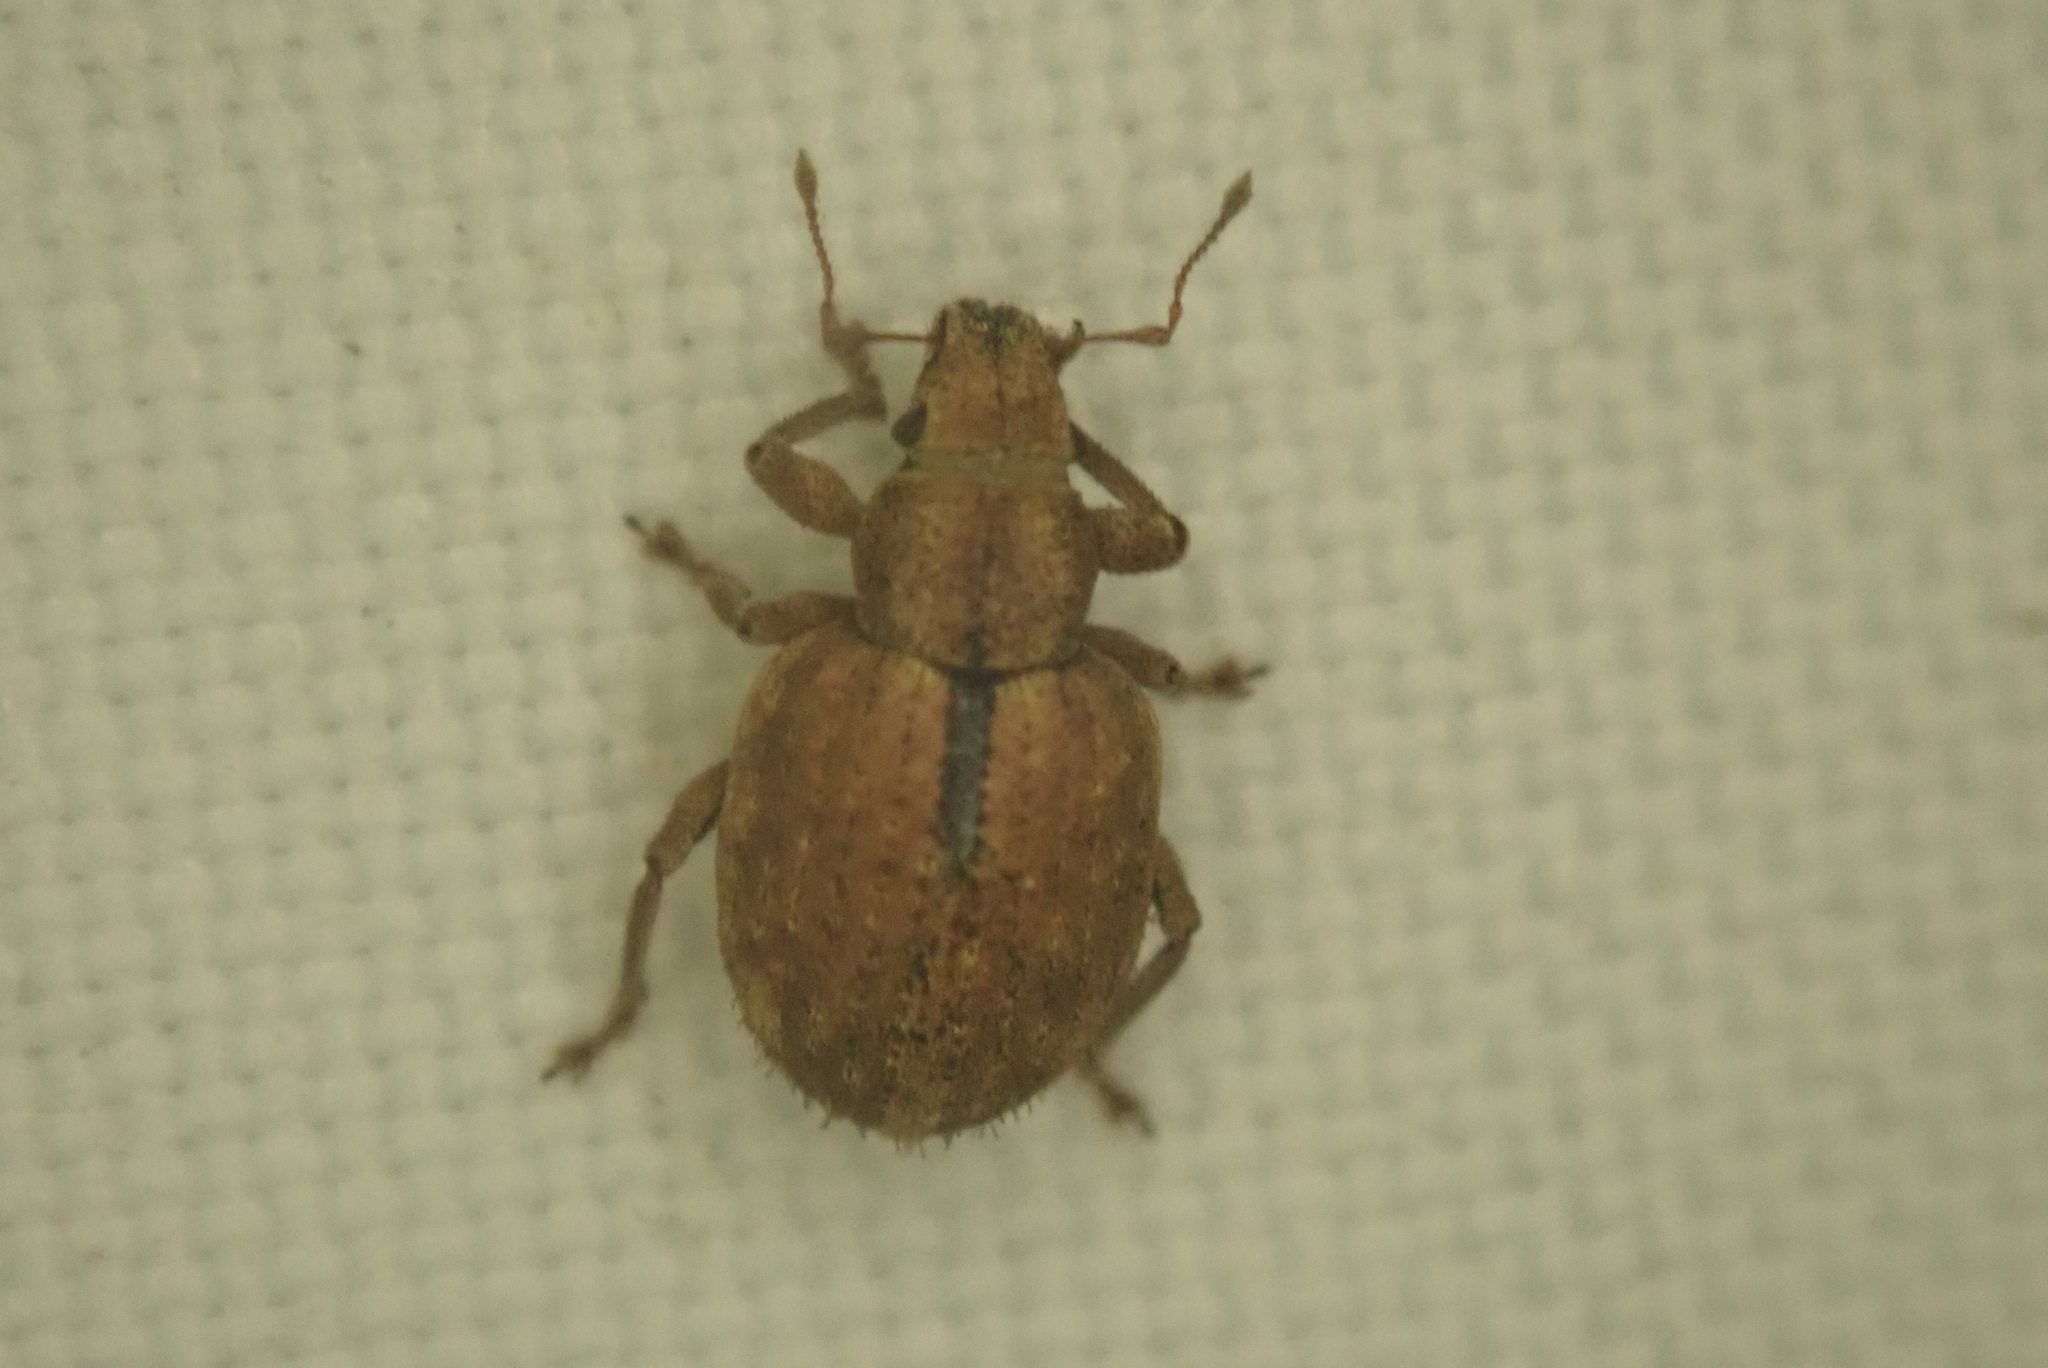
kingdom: Animalia
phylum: Arthropoda
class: Insecta
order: Coleoptera
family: Curculionidae
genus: Strophosoma
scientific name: Strophosoma melanogrammum
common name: Weevil
